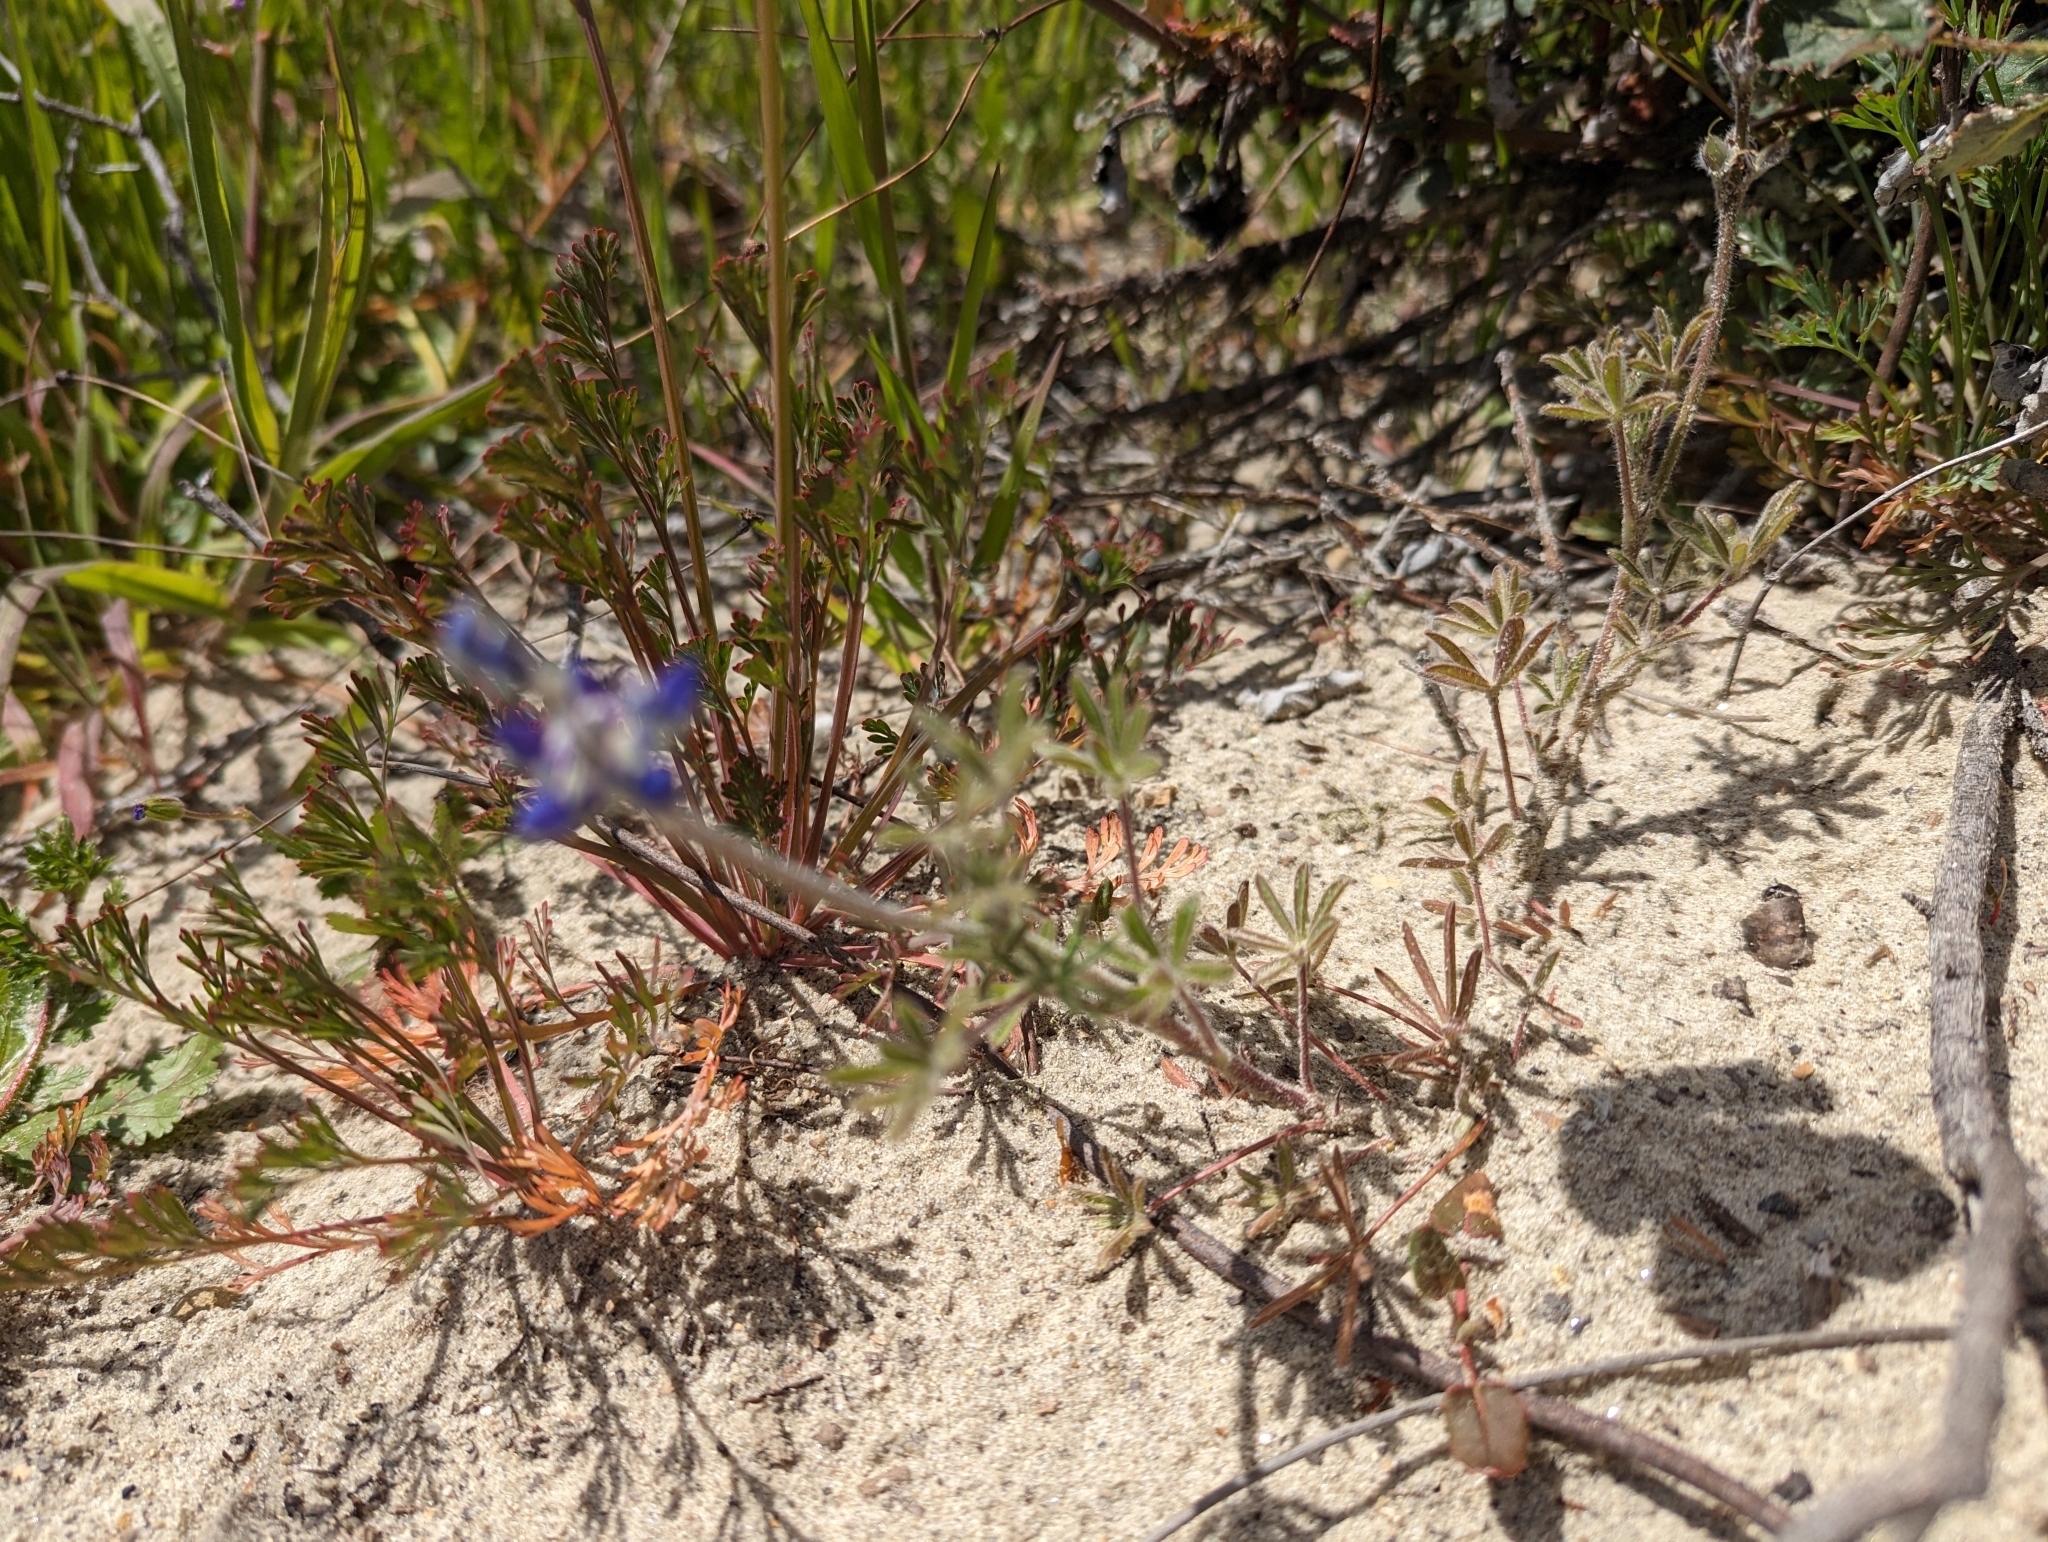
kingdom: Plantae
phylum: Tracheophyta
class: Magnoliopsida
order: Fabales
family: Fabaceae
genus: Lupinus
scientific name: Lupinus bicolor
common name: Miniature lupine
